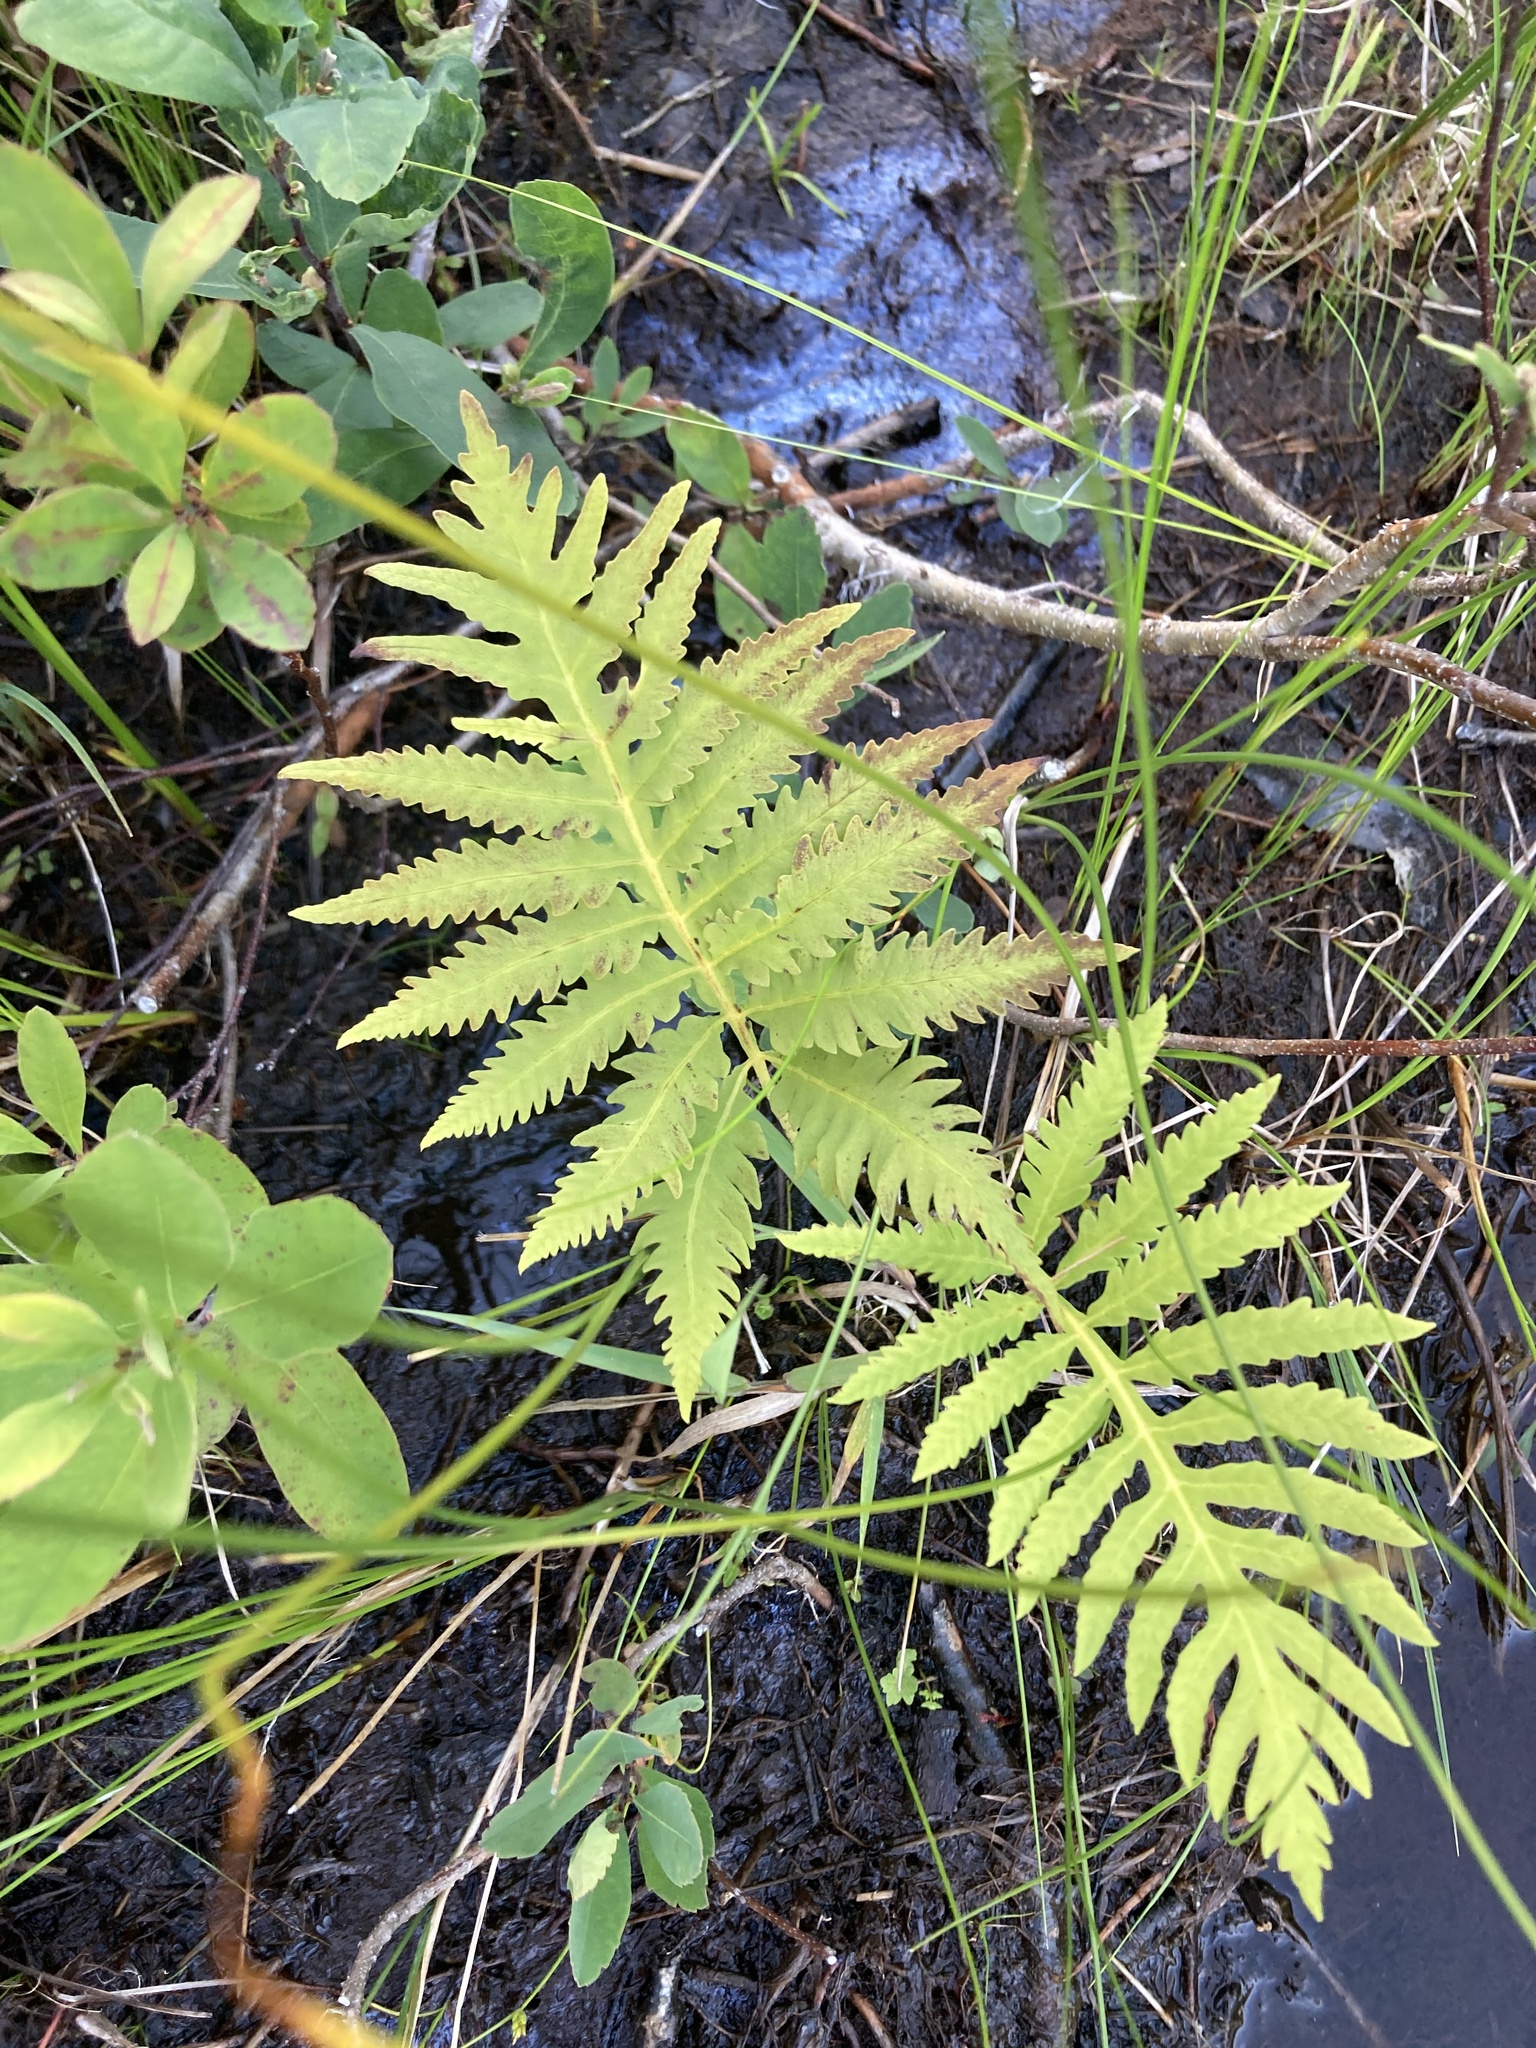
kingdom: Plantae
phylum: Tracheophyta
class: Polypodiopsida
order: Polypodiales
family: Onocleaceae
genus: Onoclea
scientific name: Onoclea sensibilis
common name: Sensitive fern
